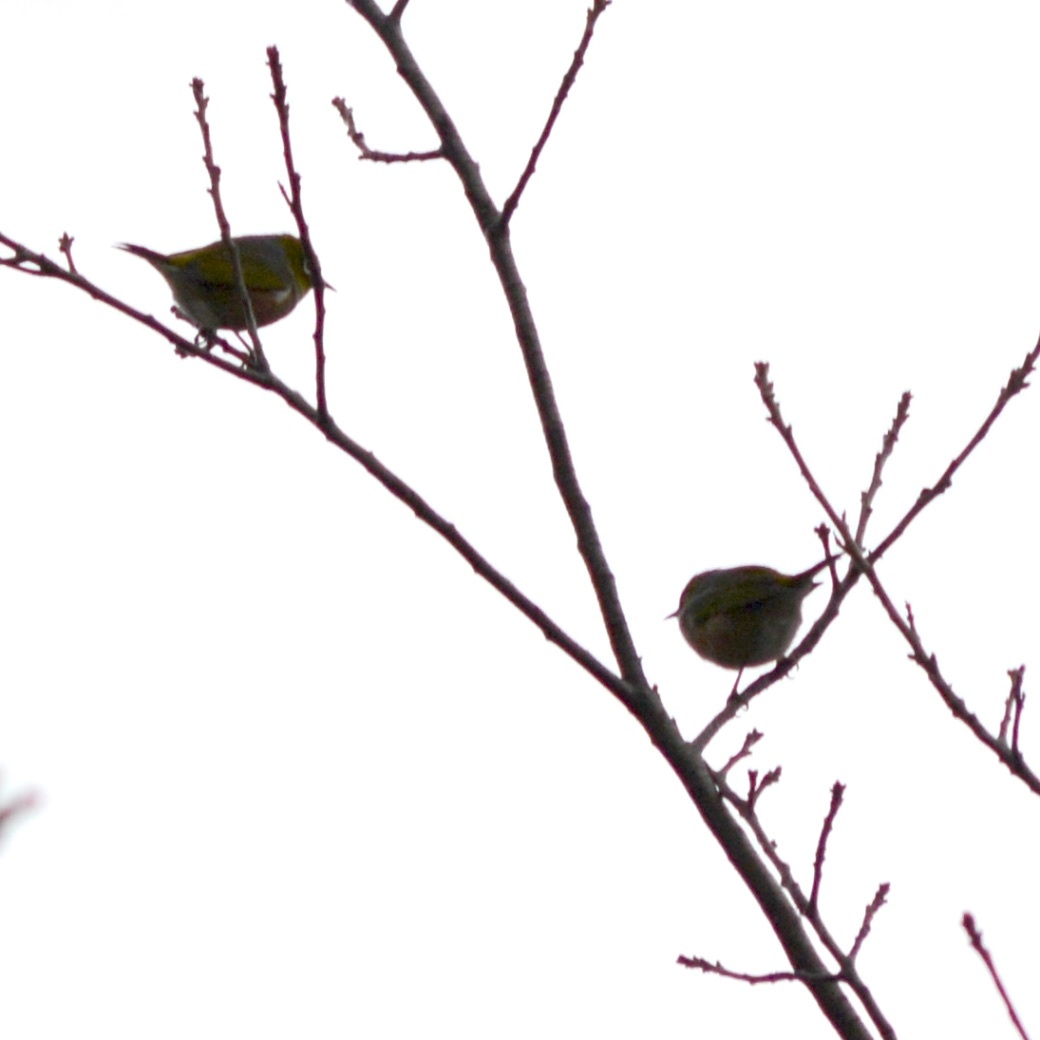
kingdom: Animalia
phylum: Chordata
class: Aves
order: Passeriformes
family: Zosteropidae
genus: Zosterops
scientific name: Zosterops lateralis
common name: Silvereye
